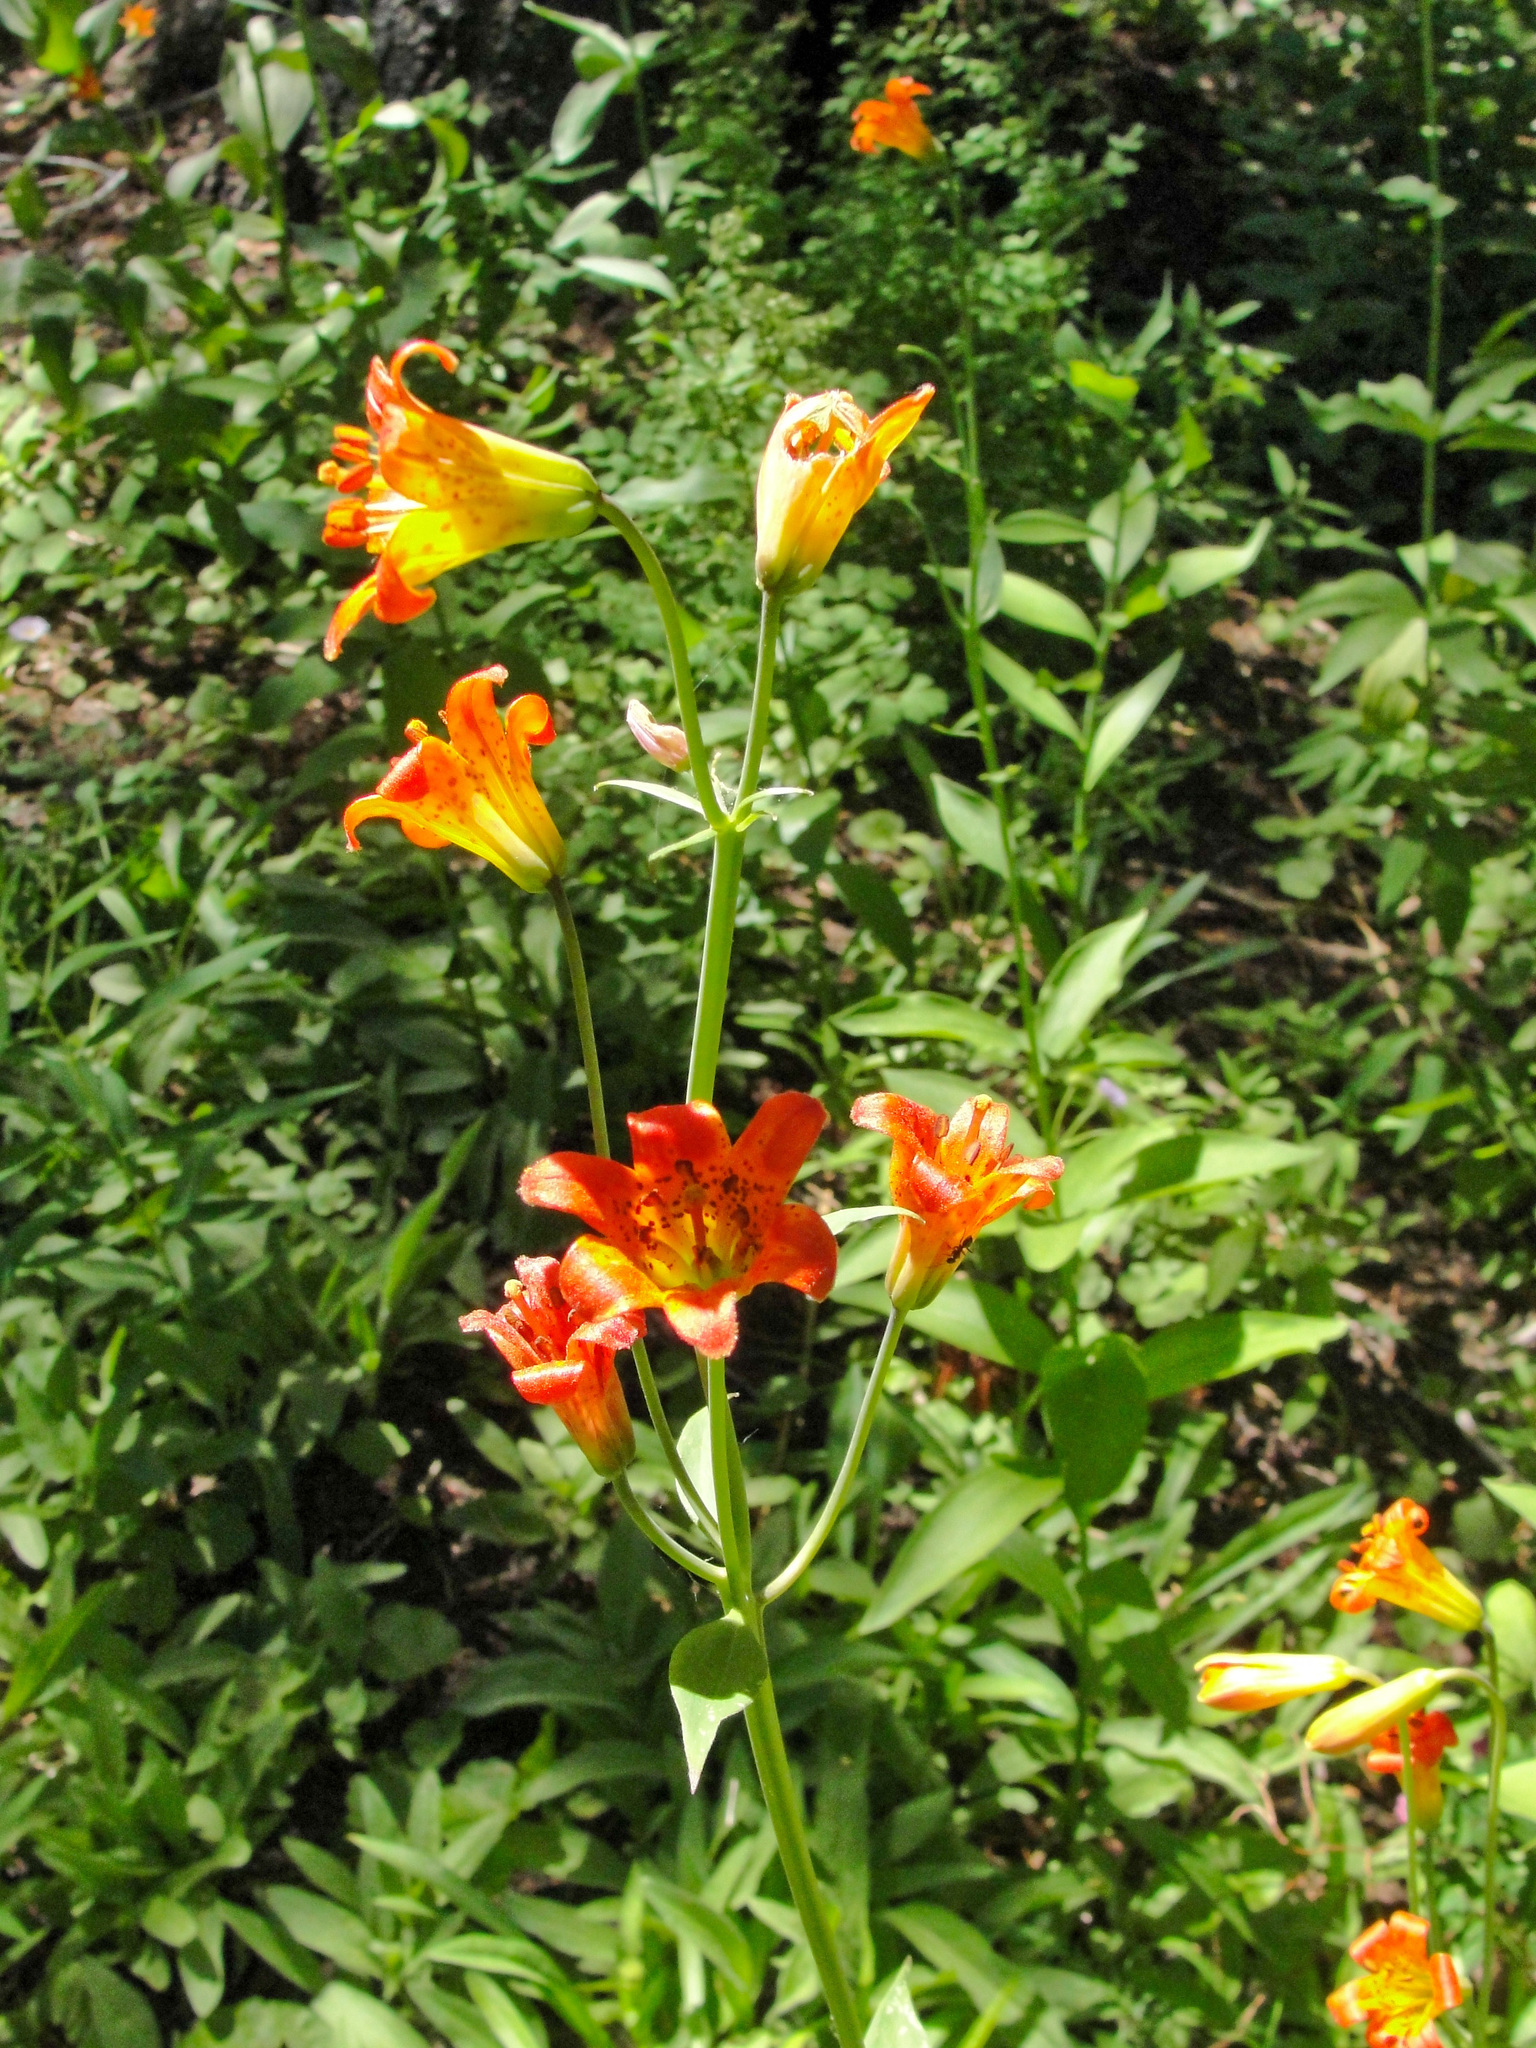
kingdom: Plantae
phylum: Tracheophyta
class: Liliopsida
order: Liliales
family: Liliaceae
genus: Lilium
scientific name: Lilium parvum
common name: Alpine lily
